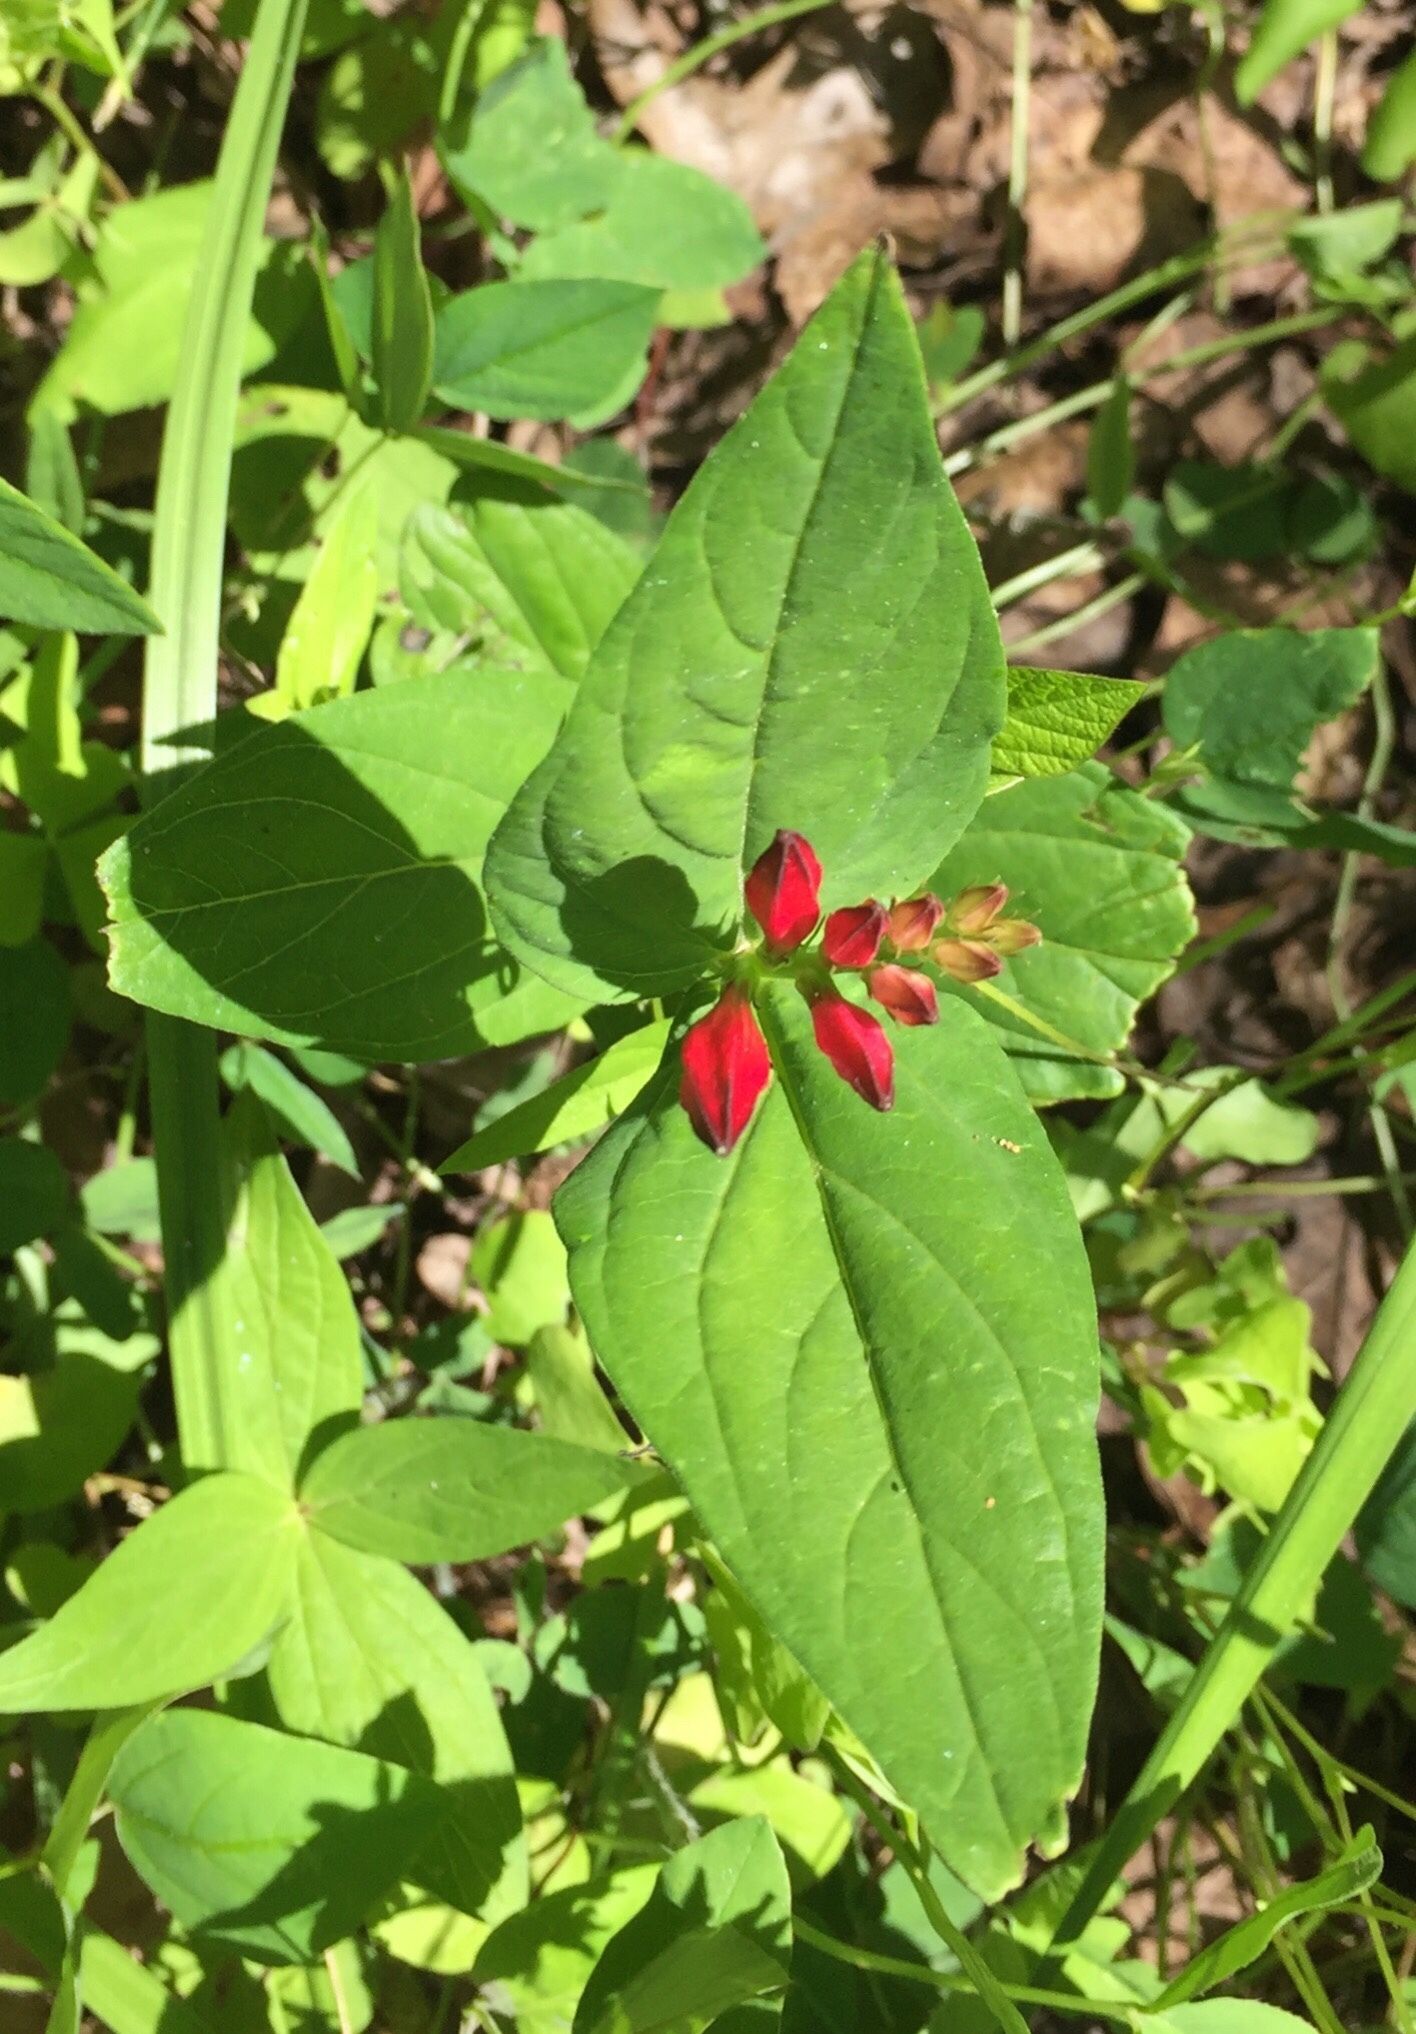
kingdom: Plantae
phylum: Tracheophyta
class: Magnoliopsida
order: Gentianales
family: Loganiaceae
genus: Spigelia
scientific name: Spigelia marilandica
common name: Indian-pink
